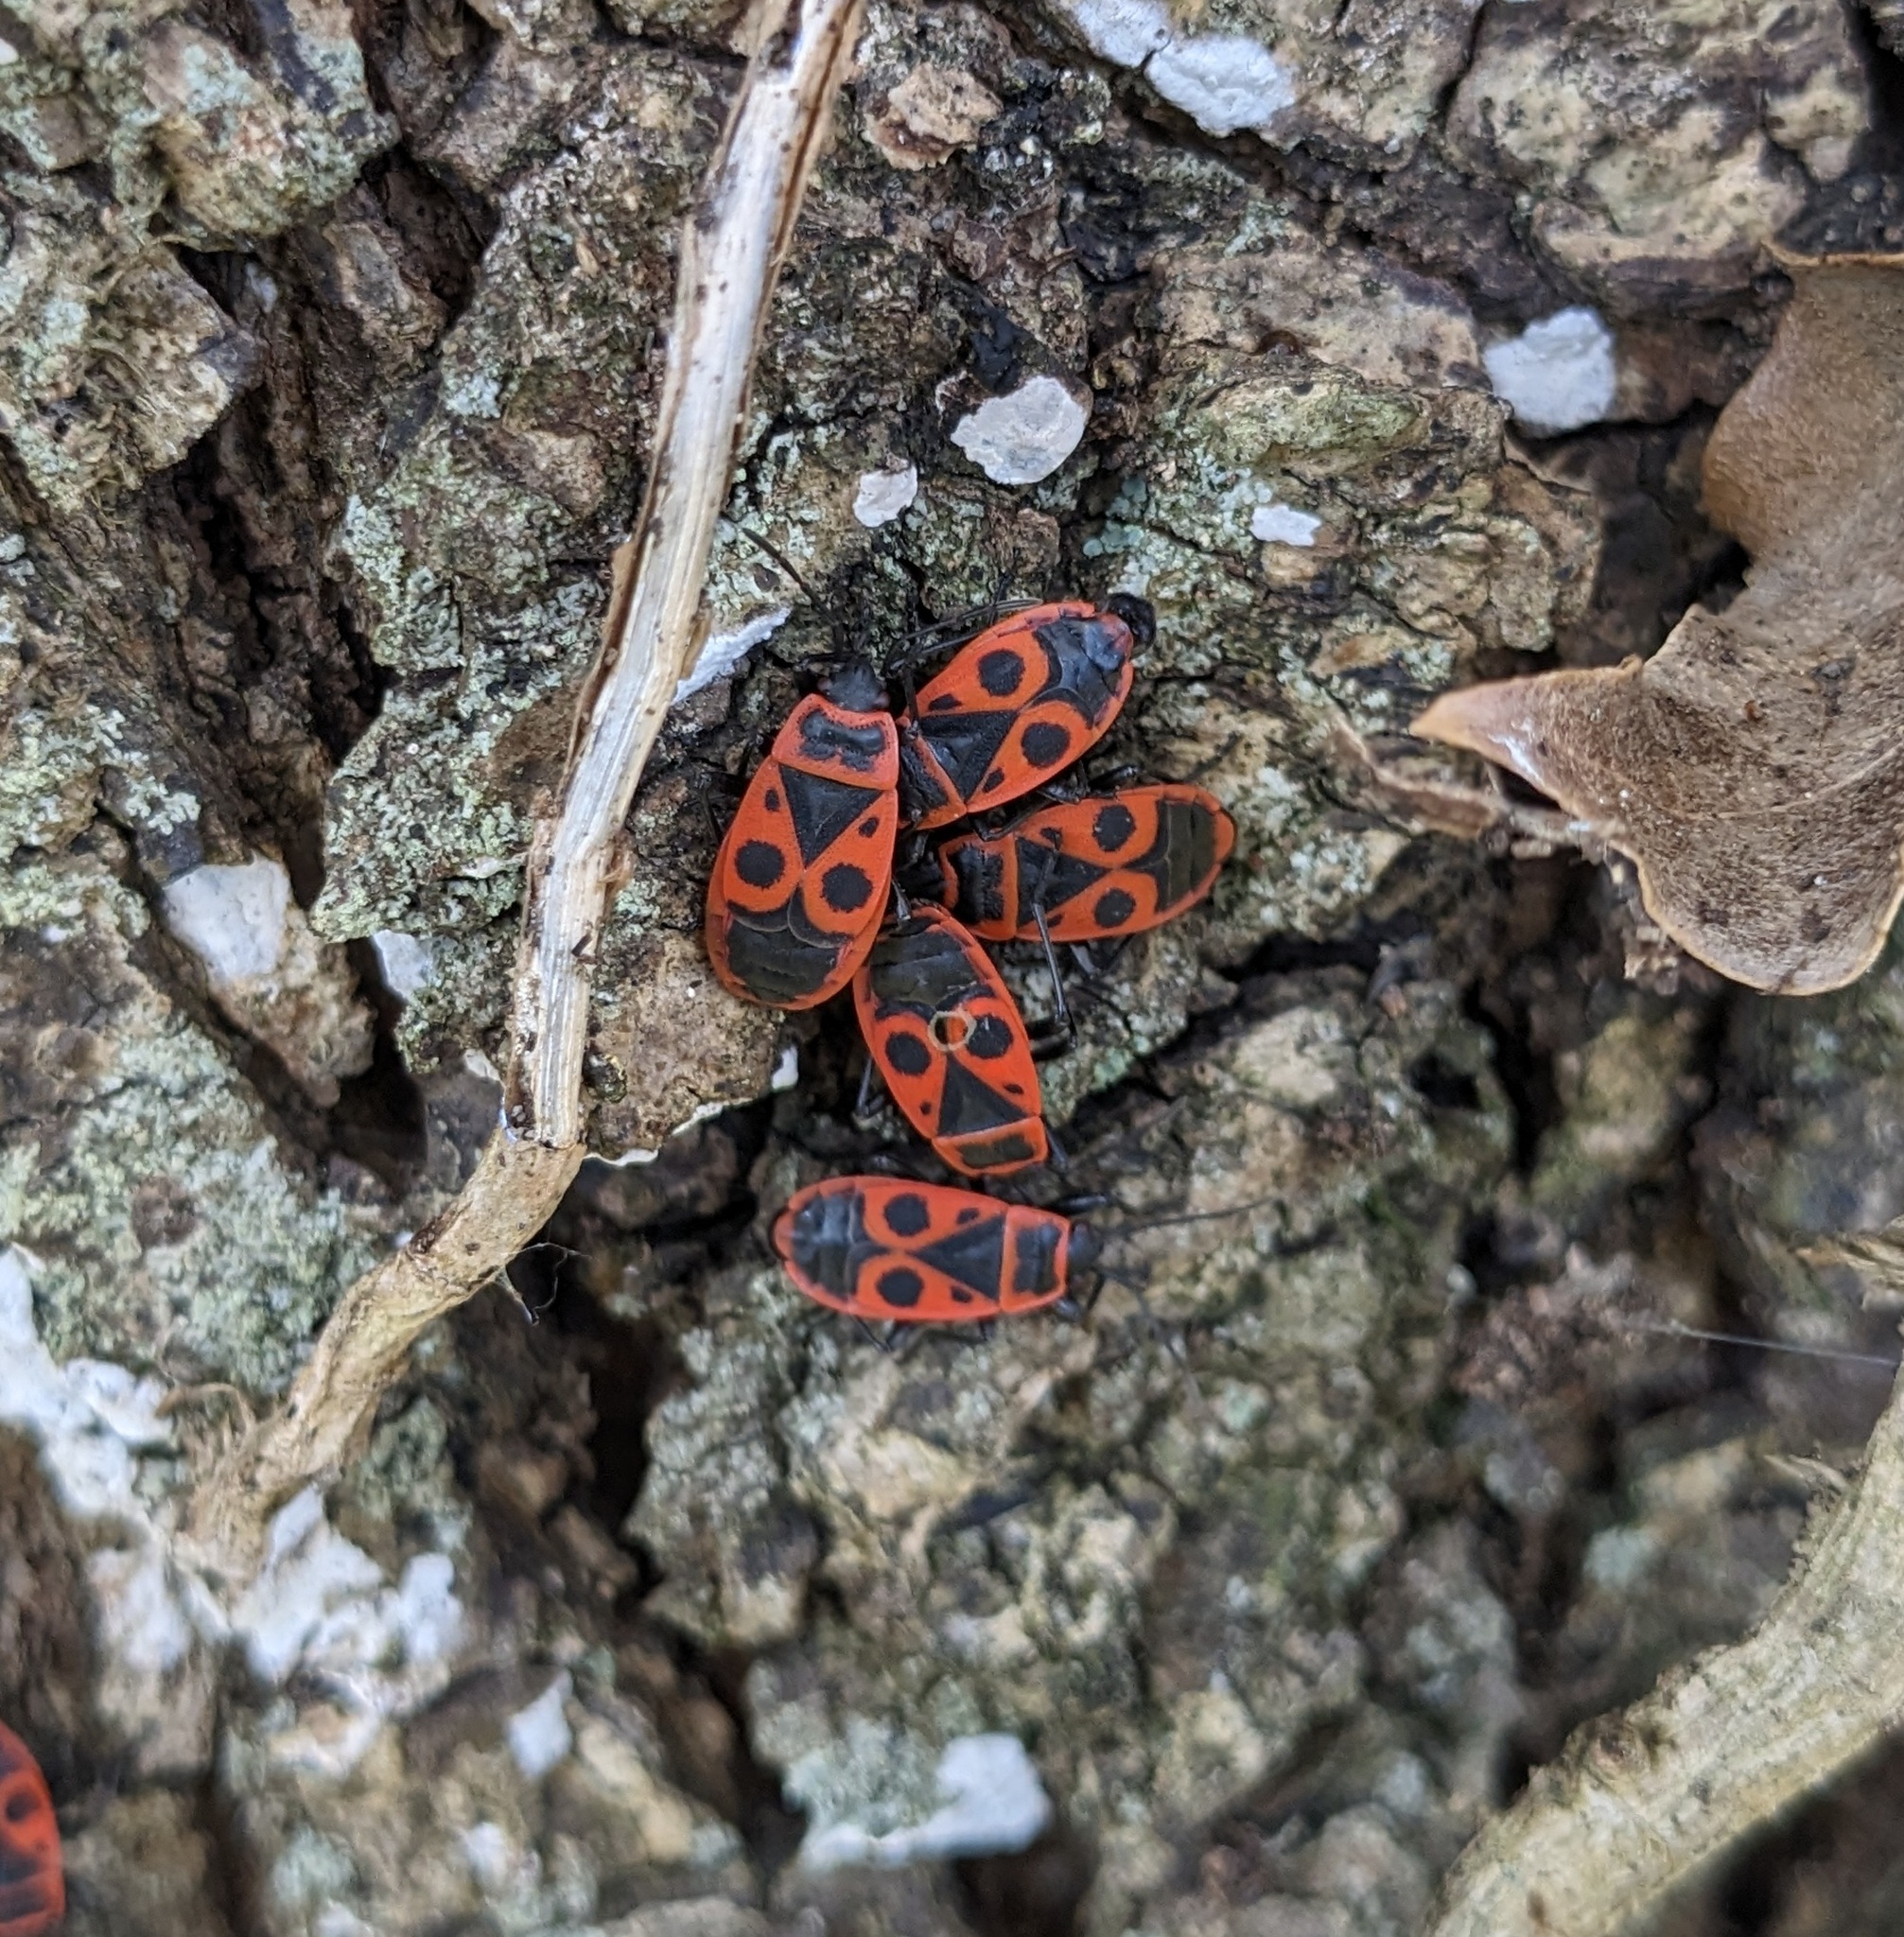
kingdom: Animalia
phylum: Arthropoda
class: Insecta
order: Hemiptera
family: Pyrrhocoridae
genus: Pyrrhocoris
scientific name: Pyrrhocoris apterus
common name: Firebug
